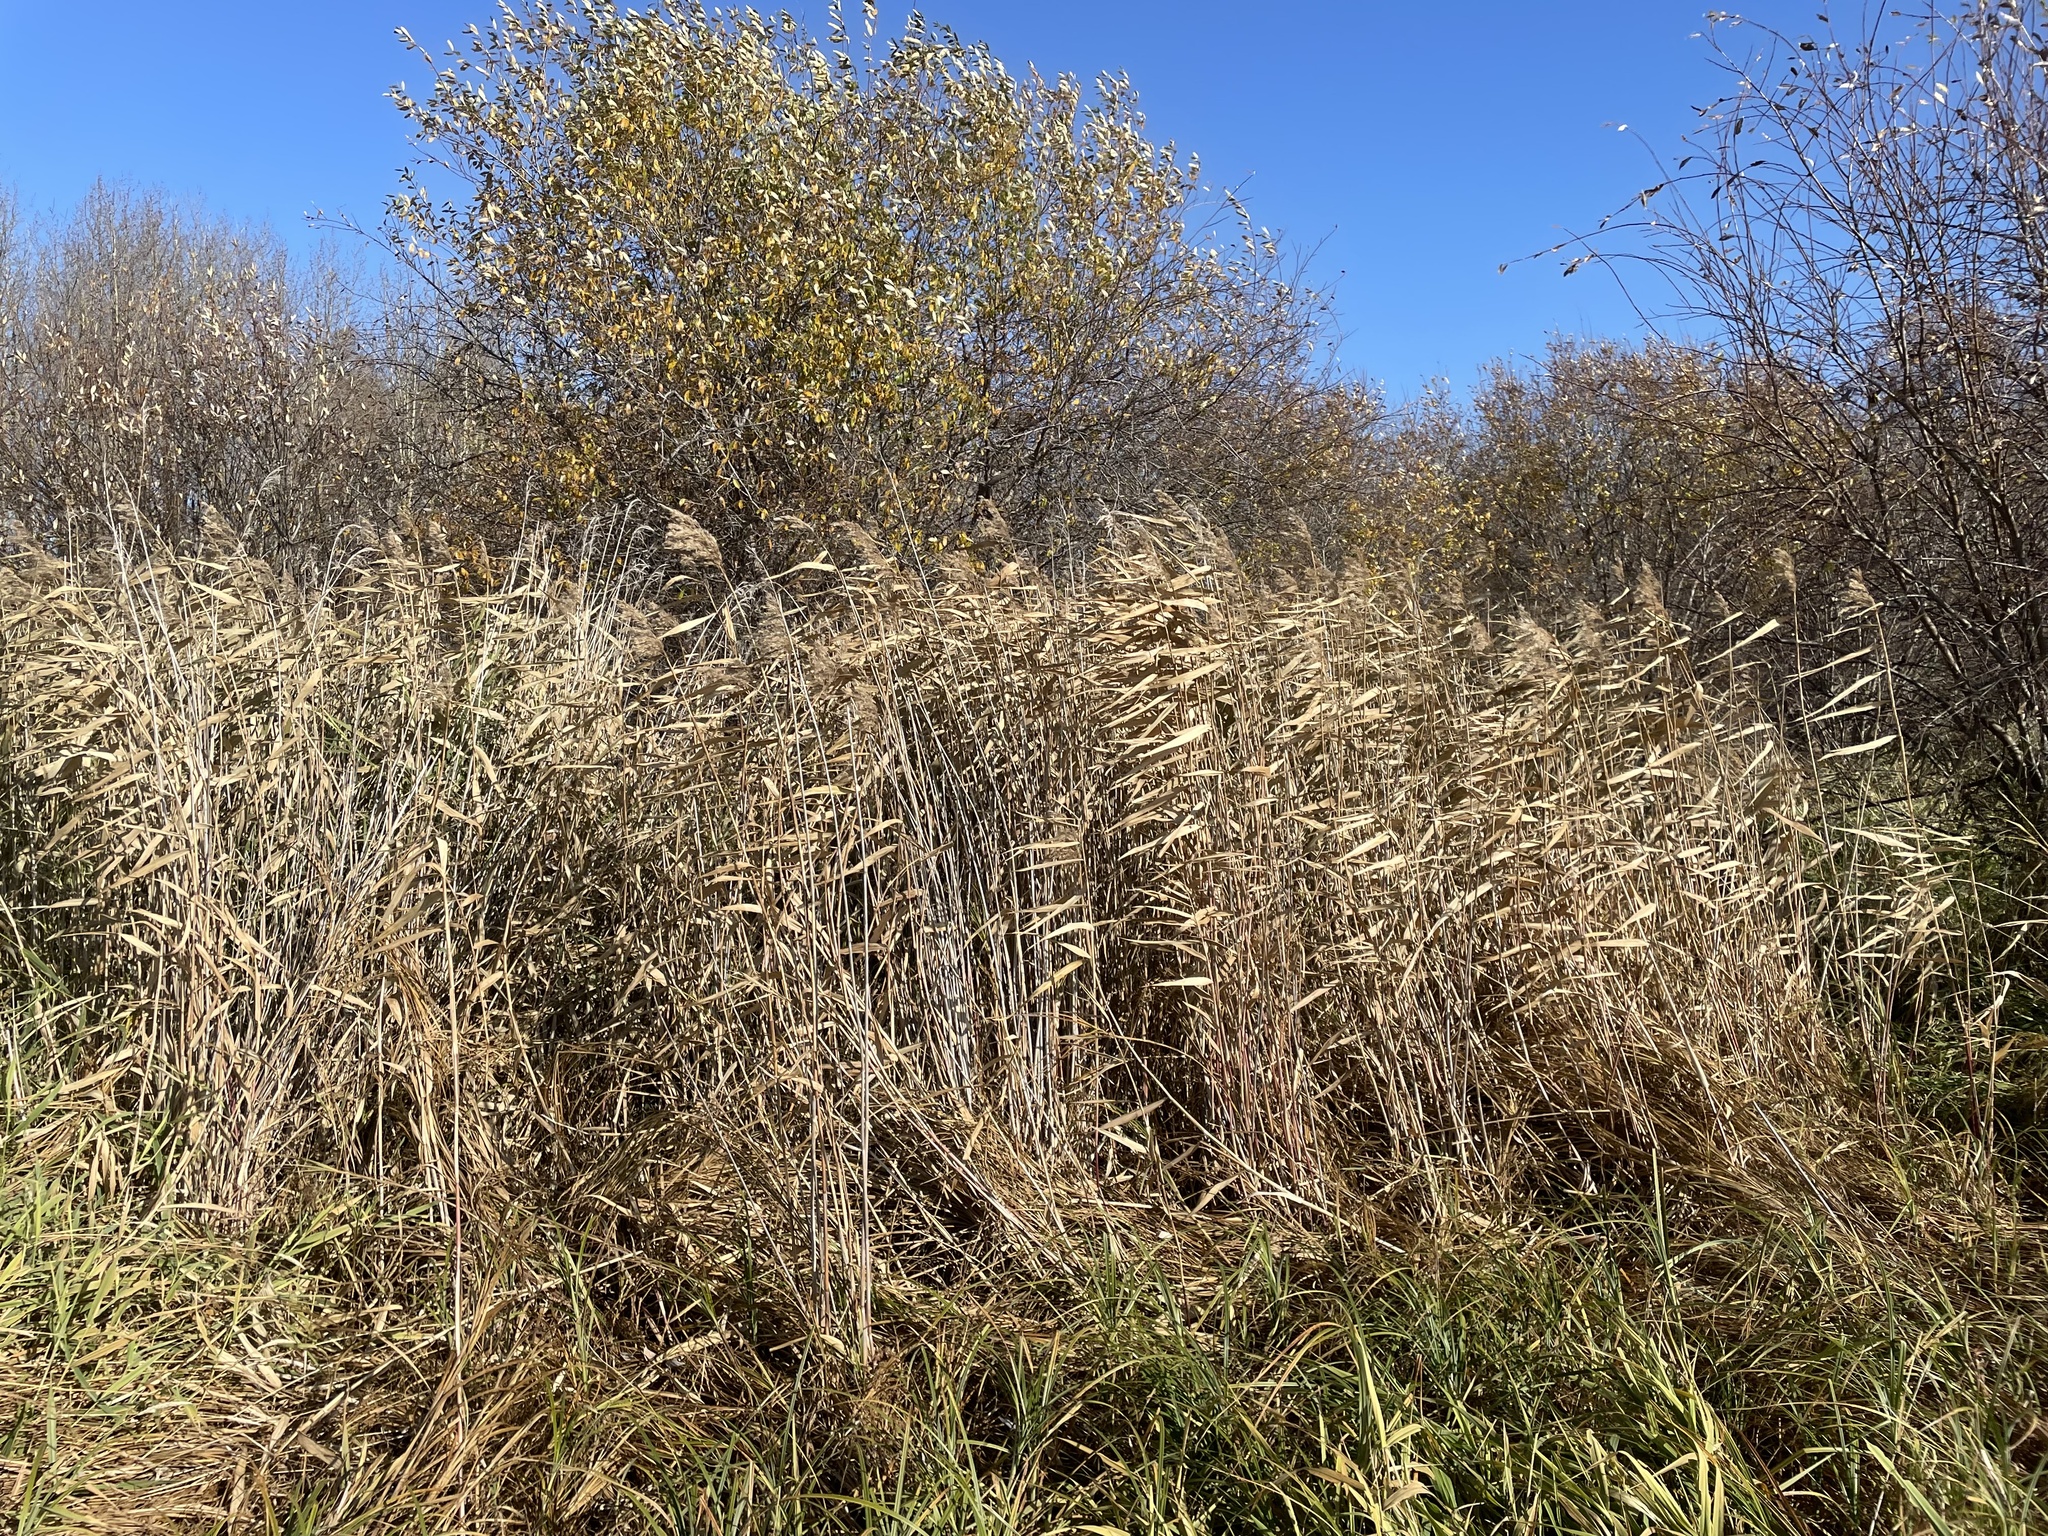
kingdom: Plantae
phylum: Tracheophyta
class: Liliopsida
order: Poales
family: Poaceae
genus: Phragmites
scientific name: Phragmites australis
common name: Common reed
